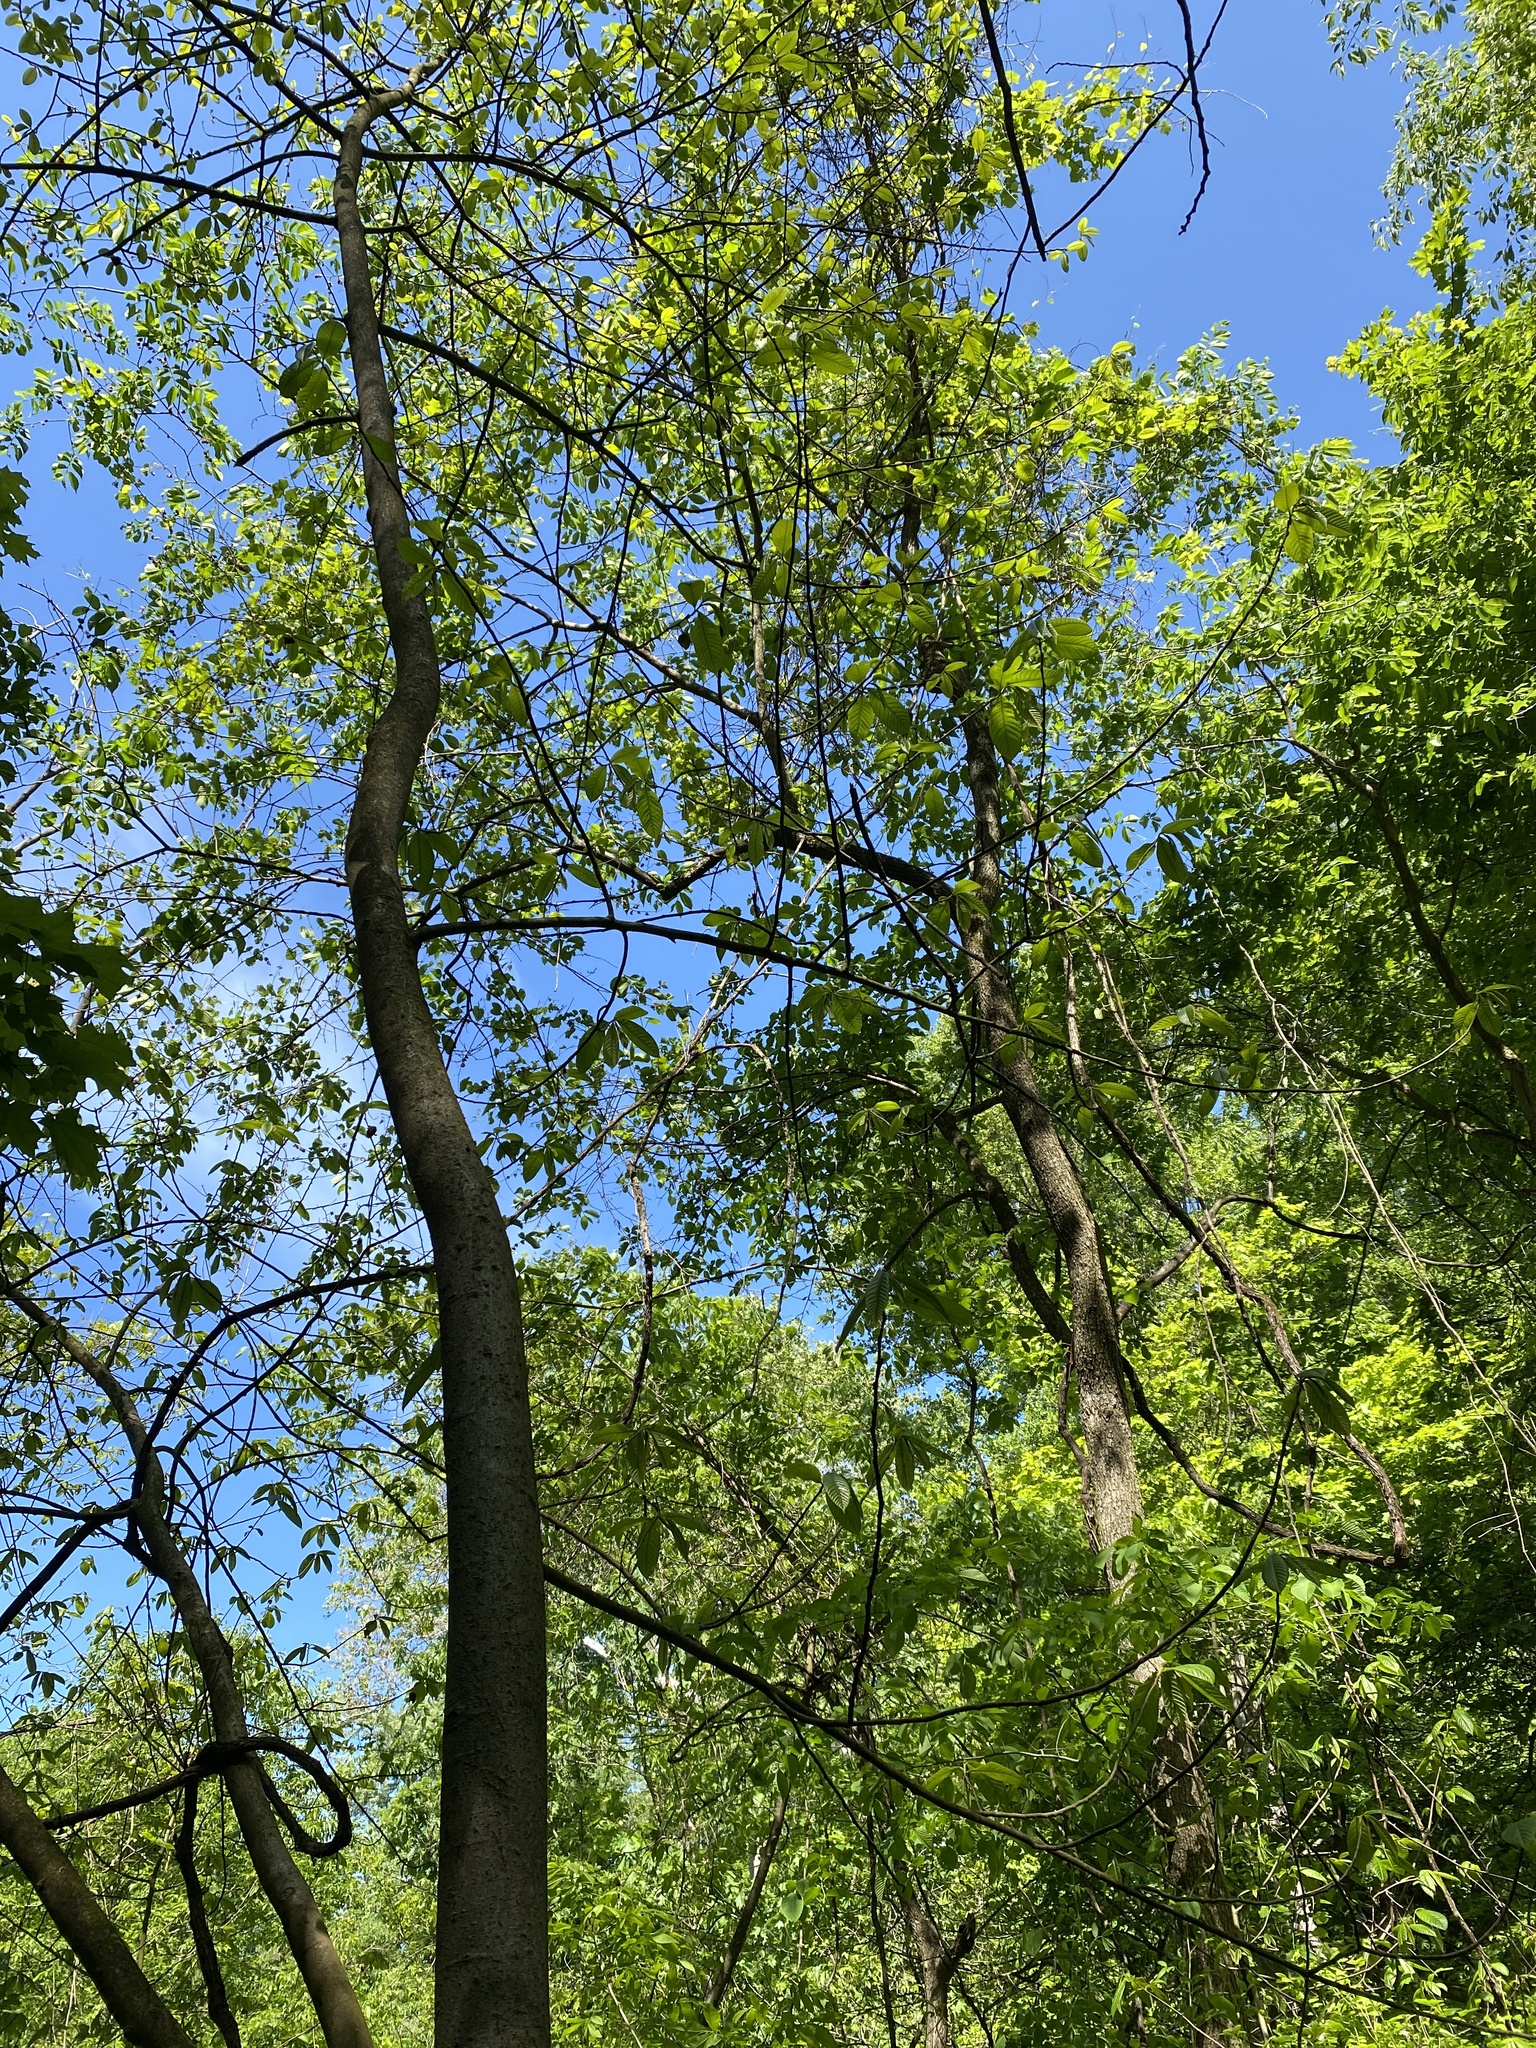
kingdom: Plantae
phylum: Tracheophyta
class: Magnoliopsida
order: Magnoliales
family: Annonaceae
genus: Asimina
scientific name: Asimina triloba
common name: Dog-banana
